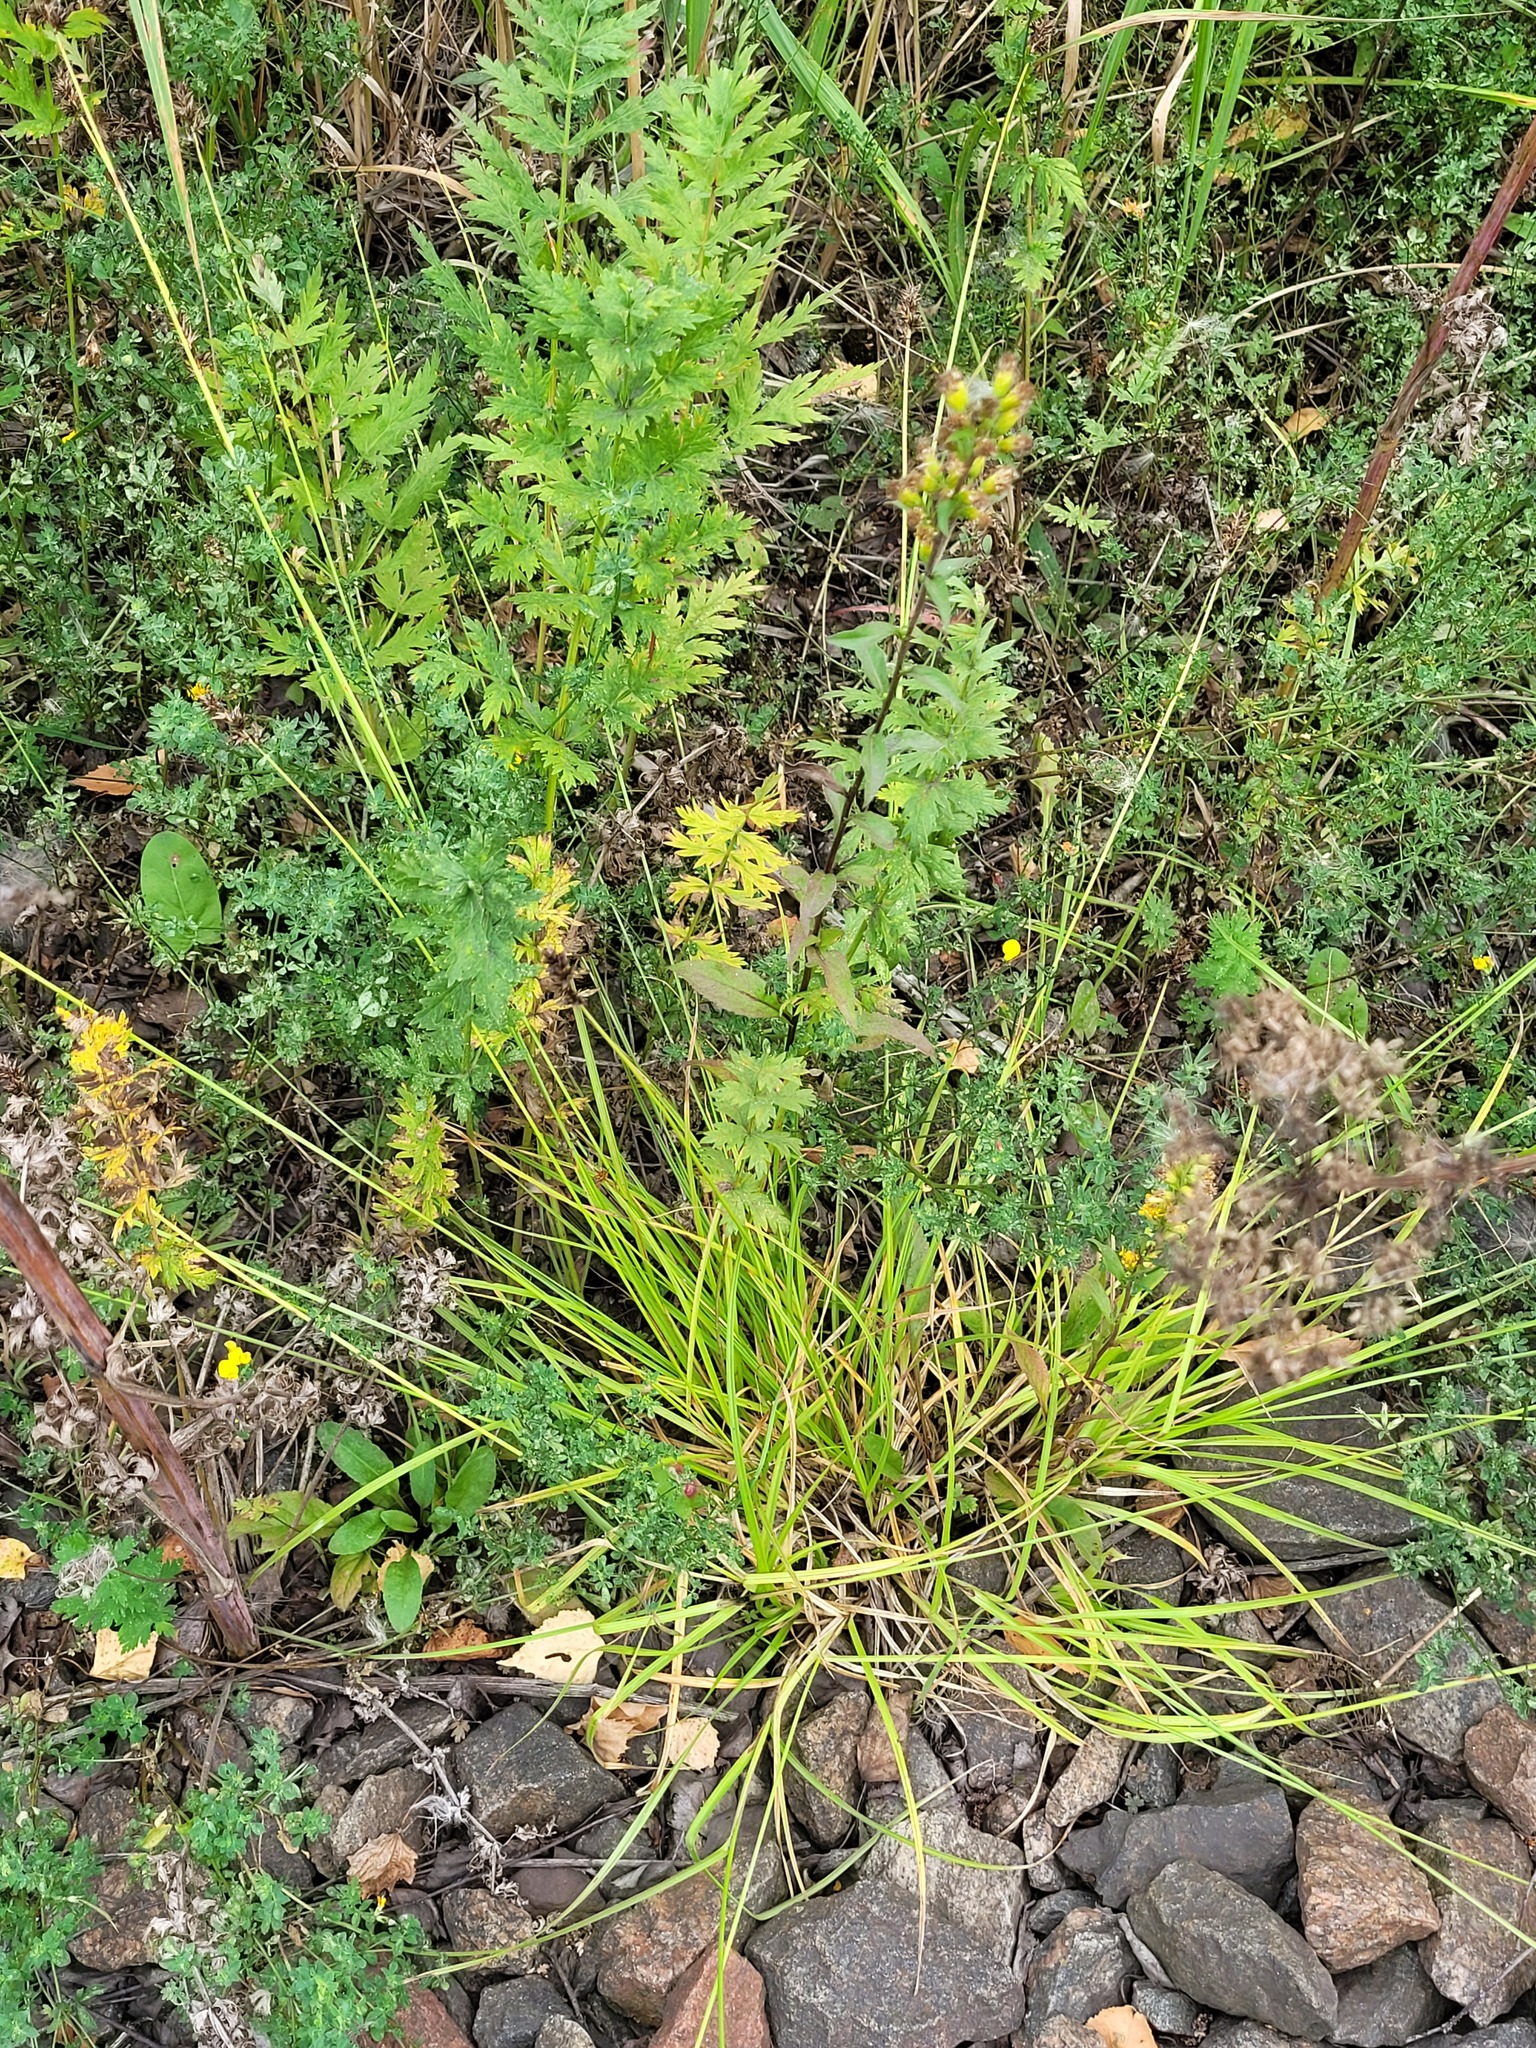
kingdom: Plantae
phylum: Tracheophyta
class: Liliopsida
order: Poales
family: Cyperaceae
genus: Carex
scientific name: Carex spicata
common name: Spiked sedge
